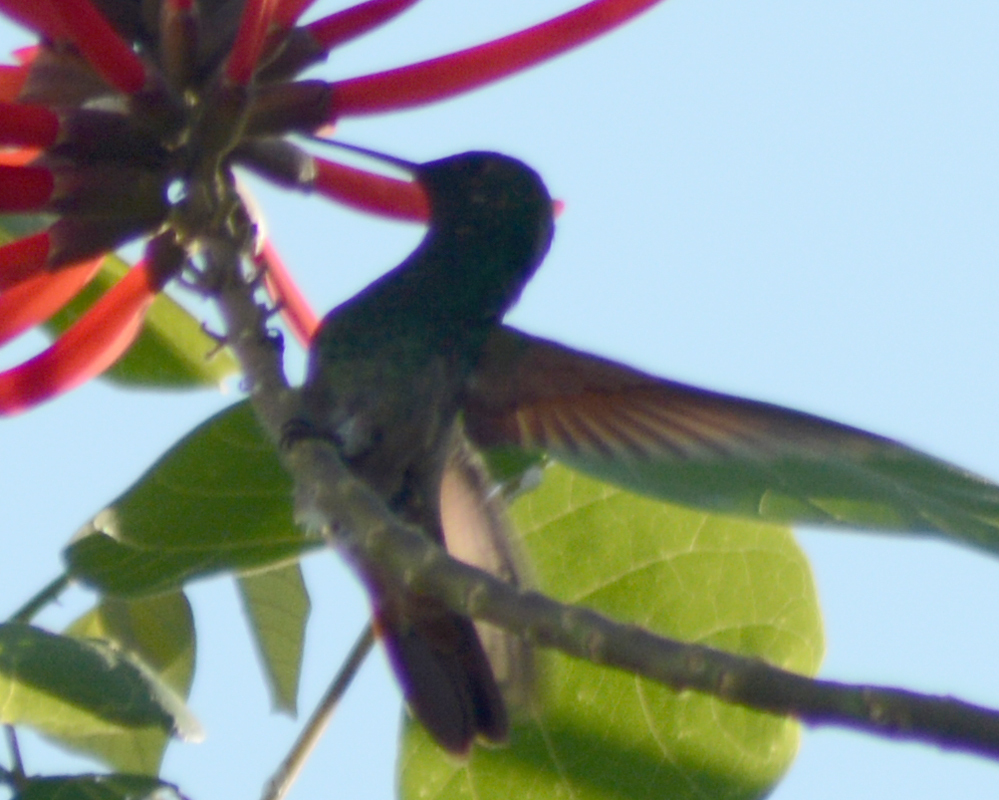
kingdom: Animalia
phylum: Chordata
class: Aves
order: Apodiformes
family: Trochilidae
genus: Saucerottia
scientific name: Saucerottia beryllina
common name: Berylline hummingbird
